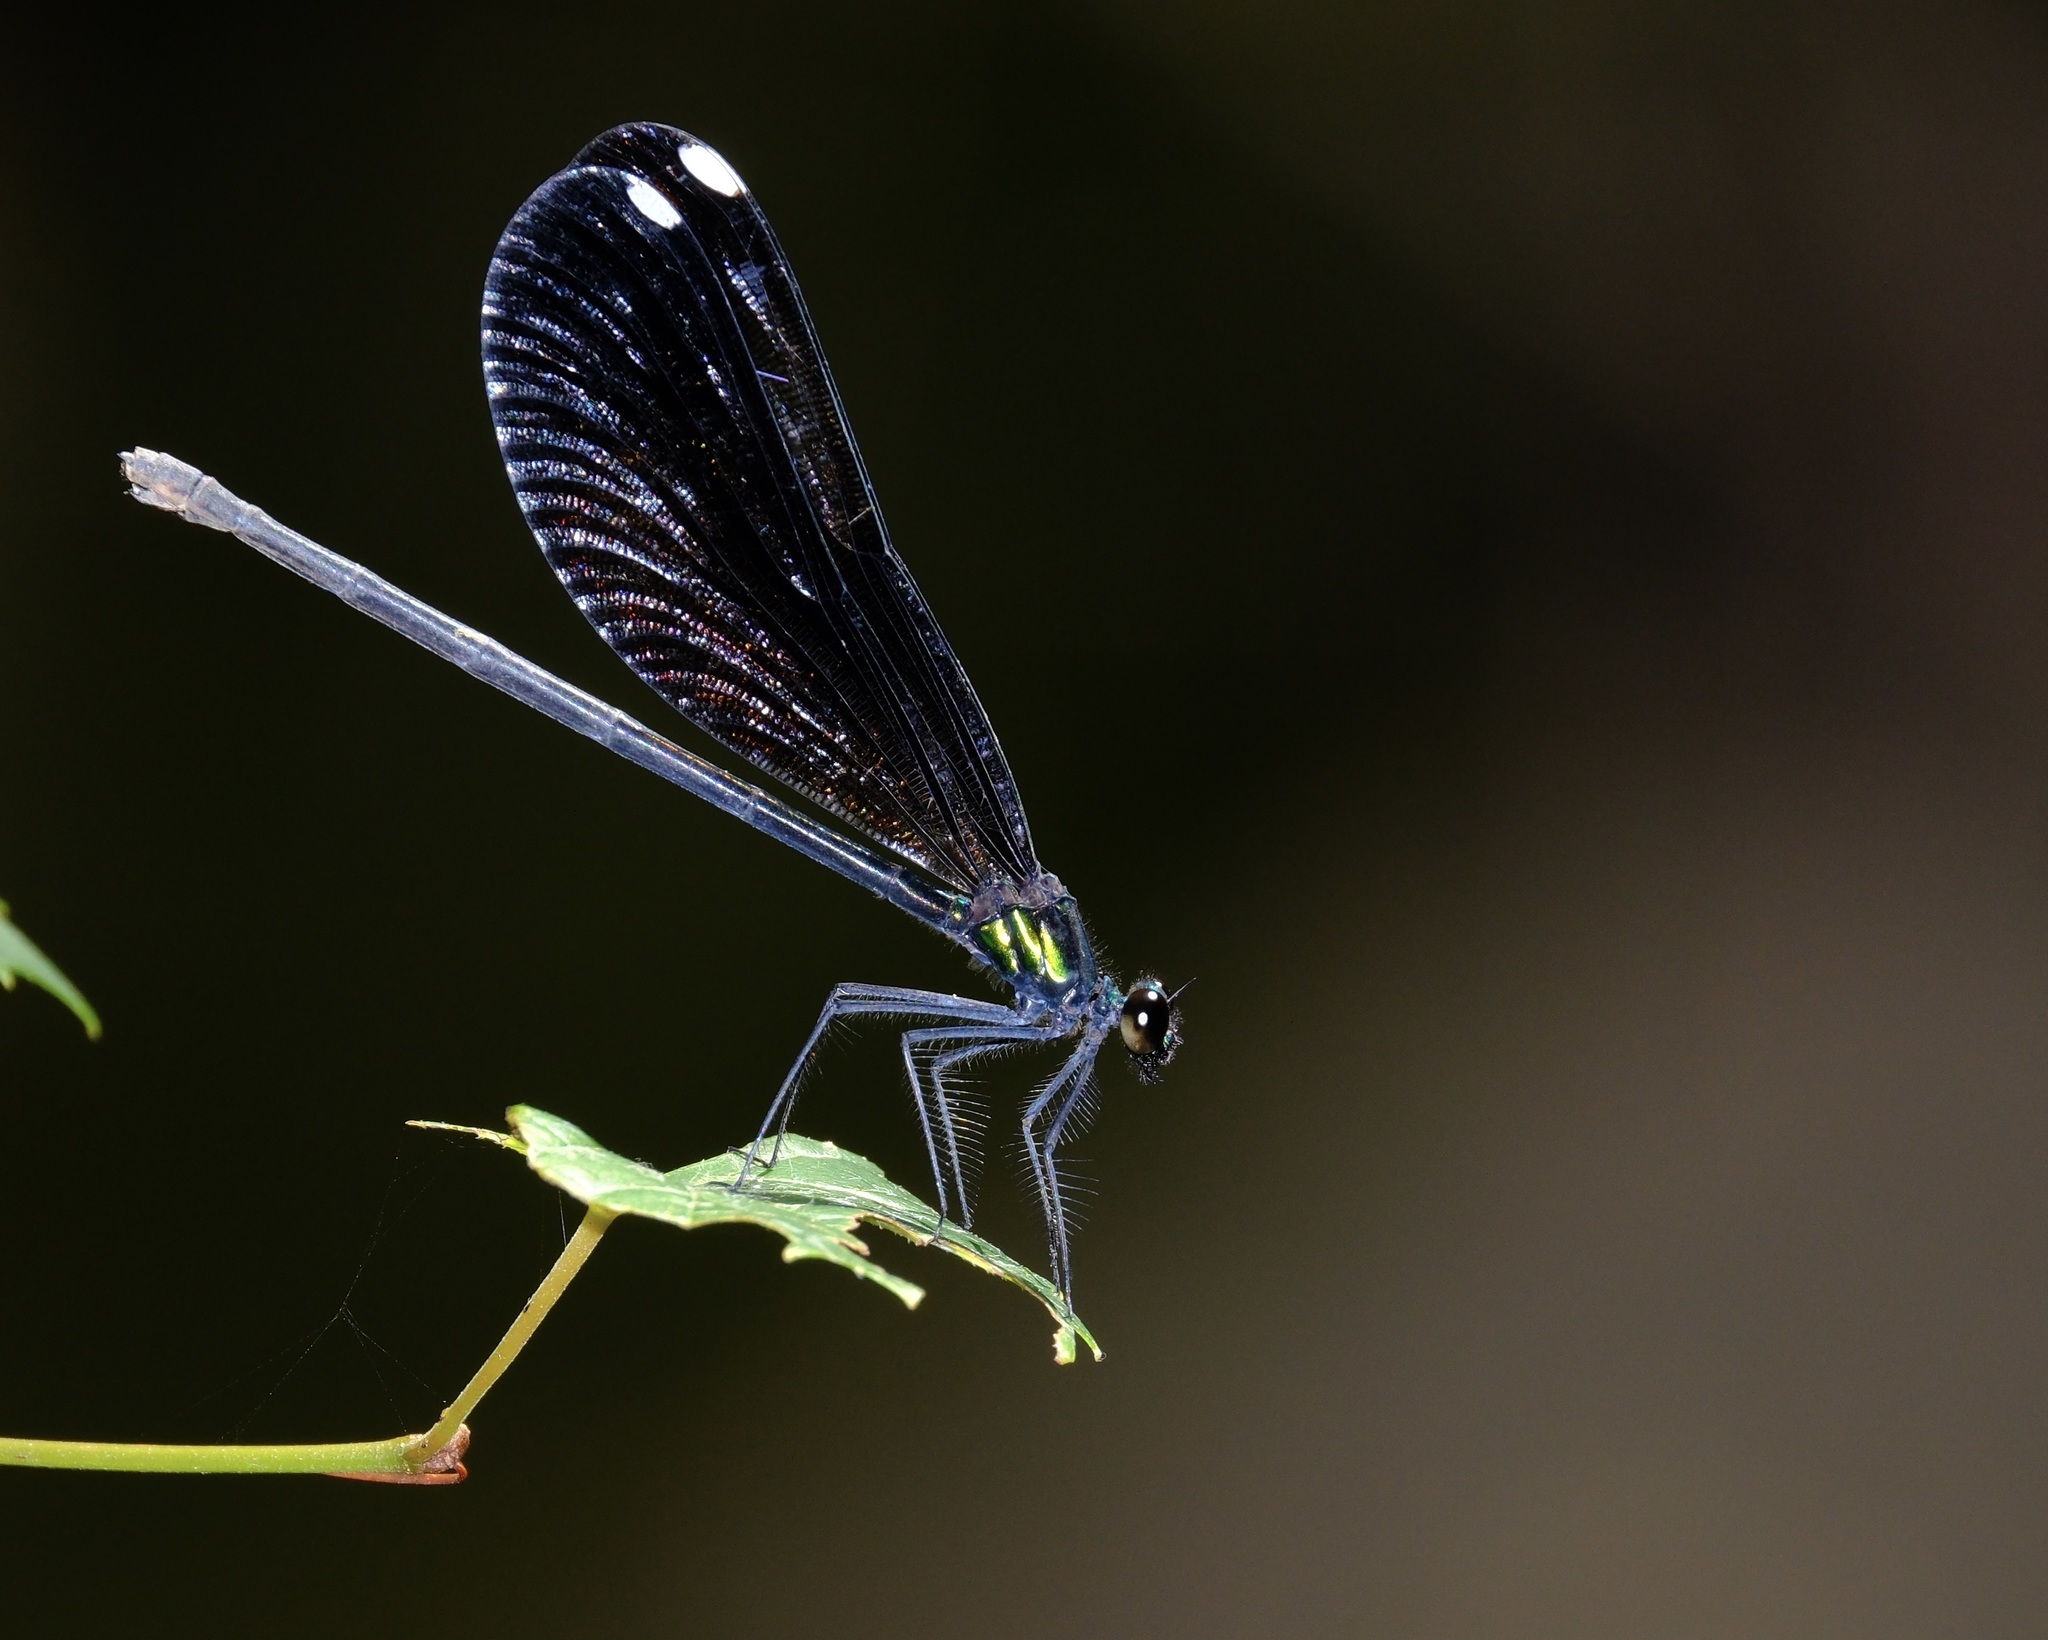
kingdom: Animalia
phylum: Arthropoda
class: Insecta
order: Odonata
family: Calopterygidae
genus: Calopteryx
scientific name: Calopteryx maculata
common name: Ebony jewelwing
